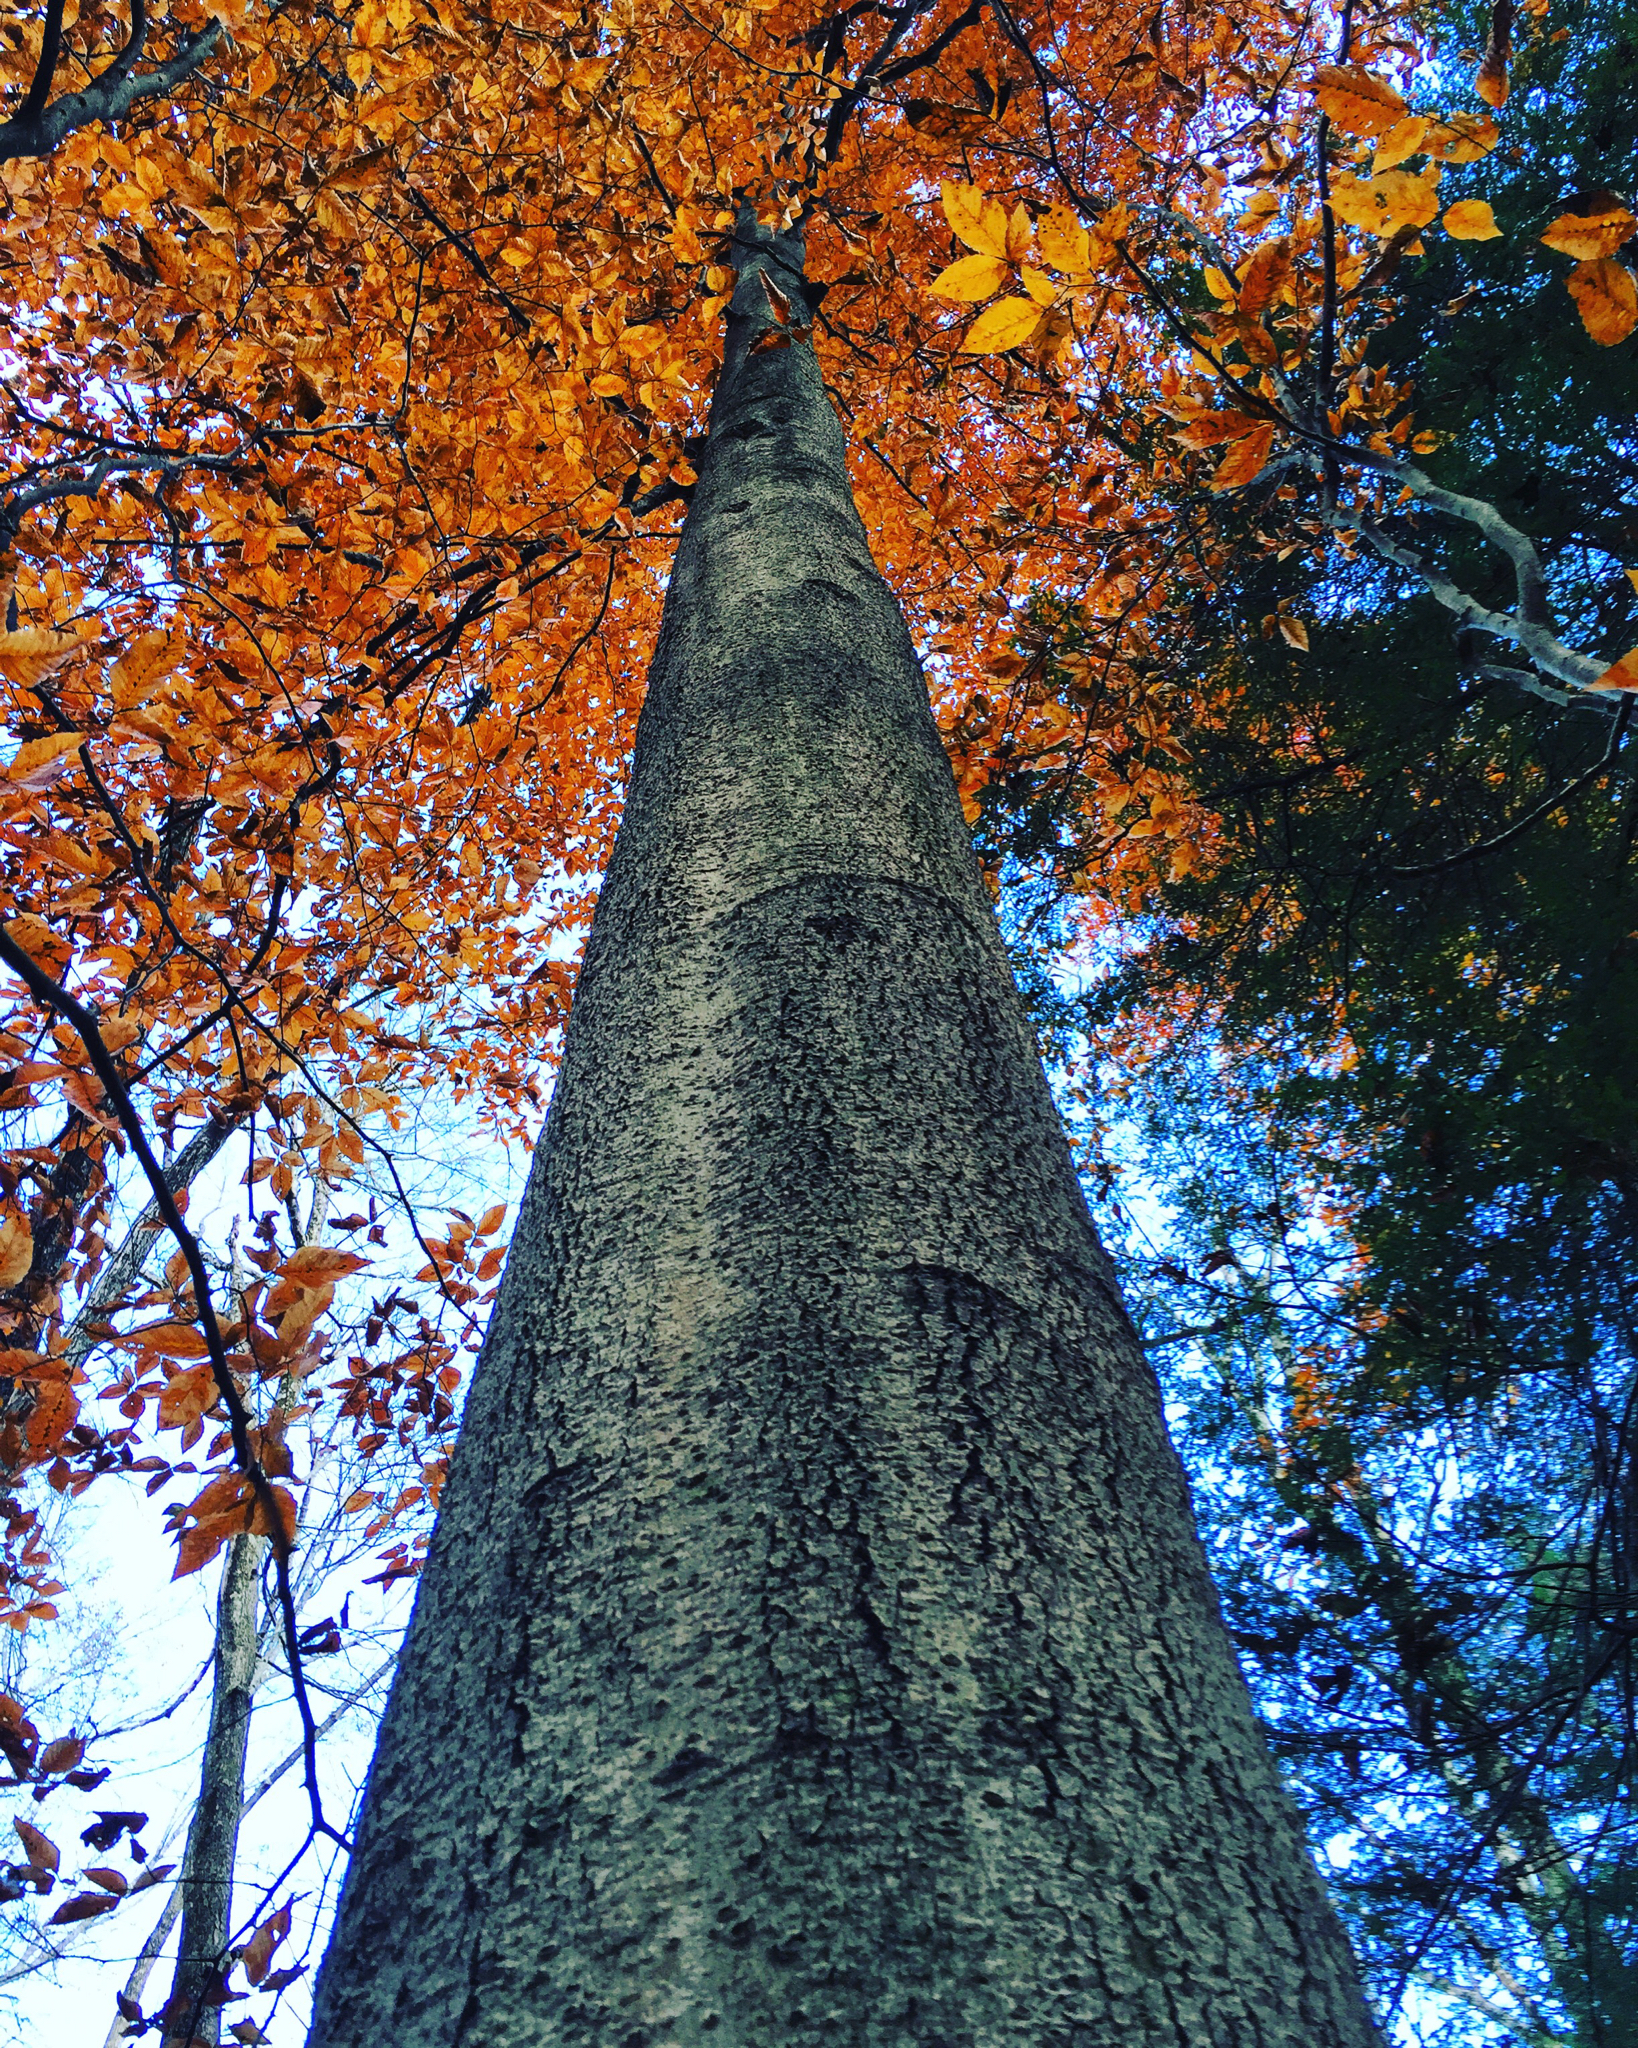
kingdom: Plantae
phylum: Tracheophyta
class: Magnoliopsida
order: Fagales
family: Fagaceae
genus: Fagus
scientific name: Fagus grandifolia
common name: American beech
